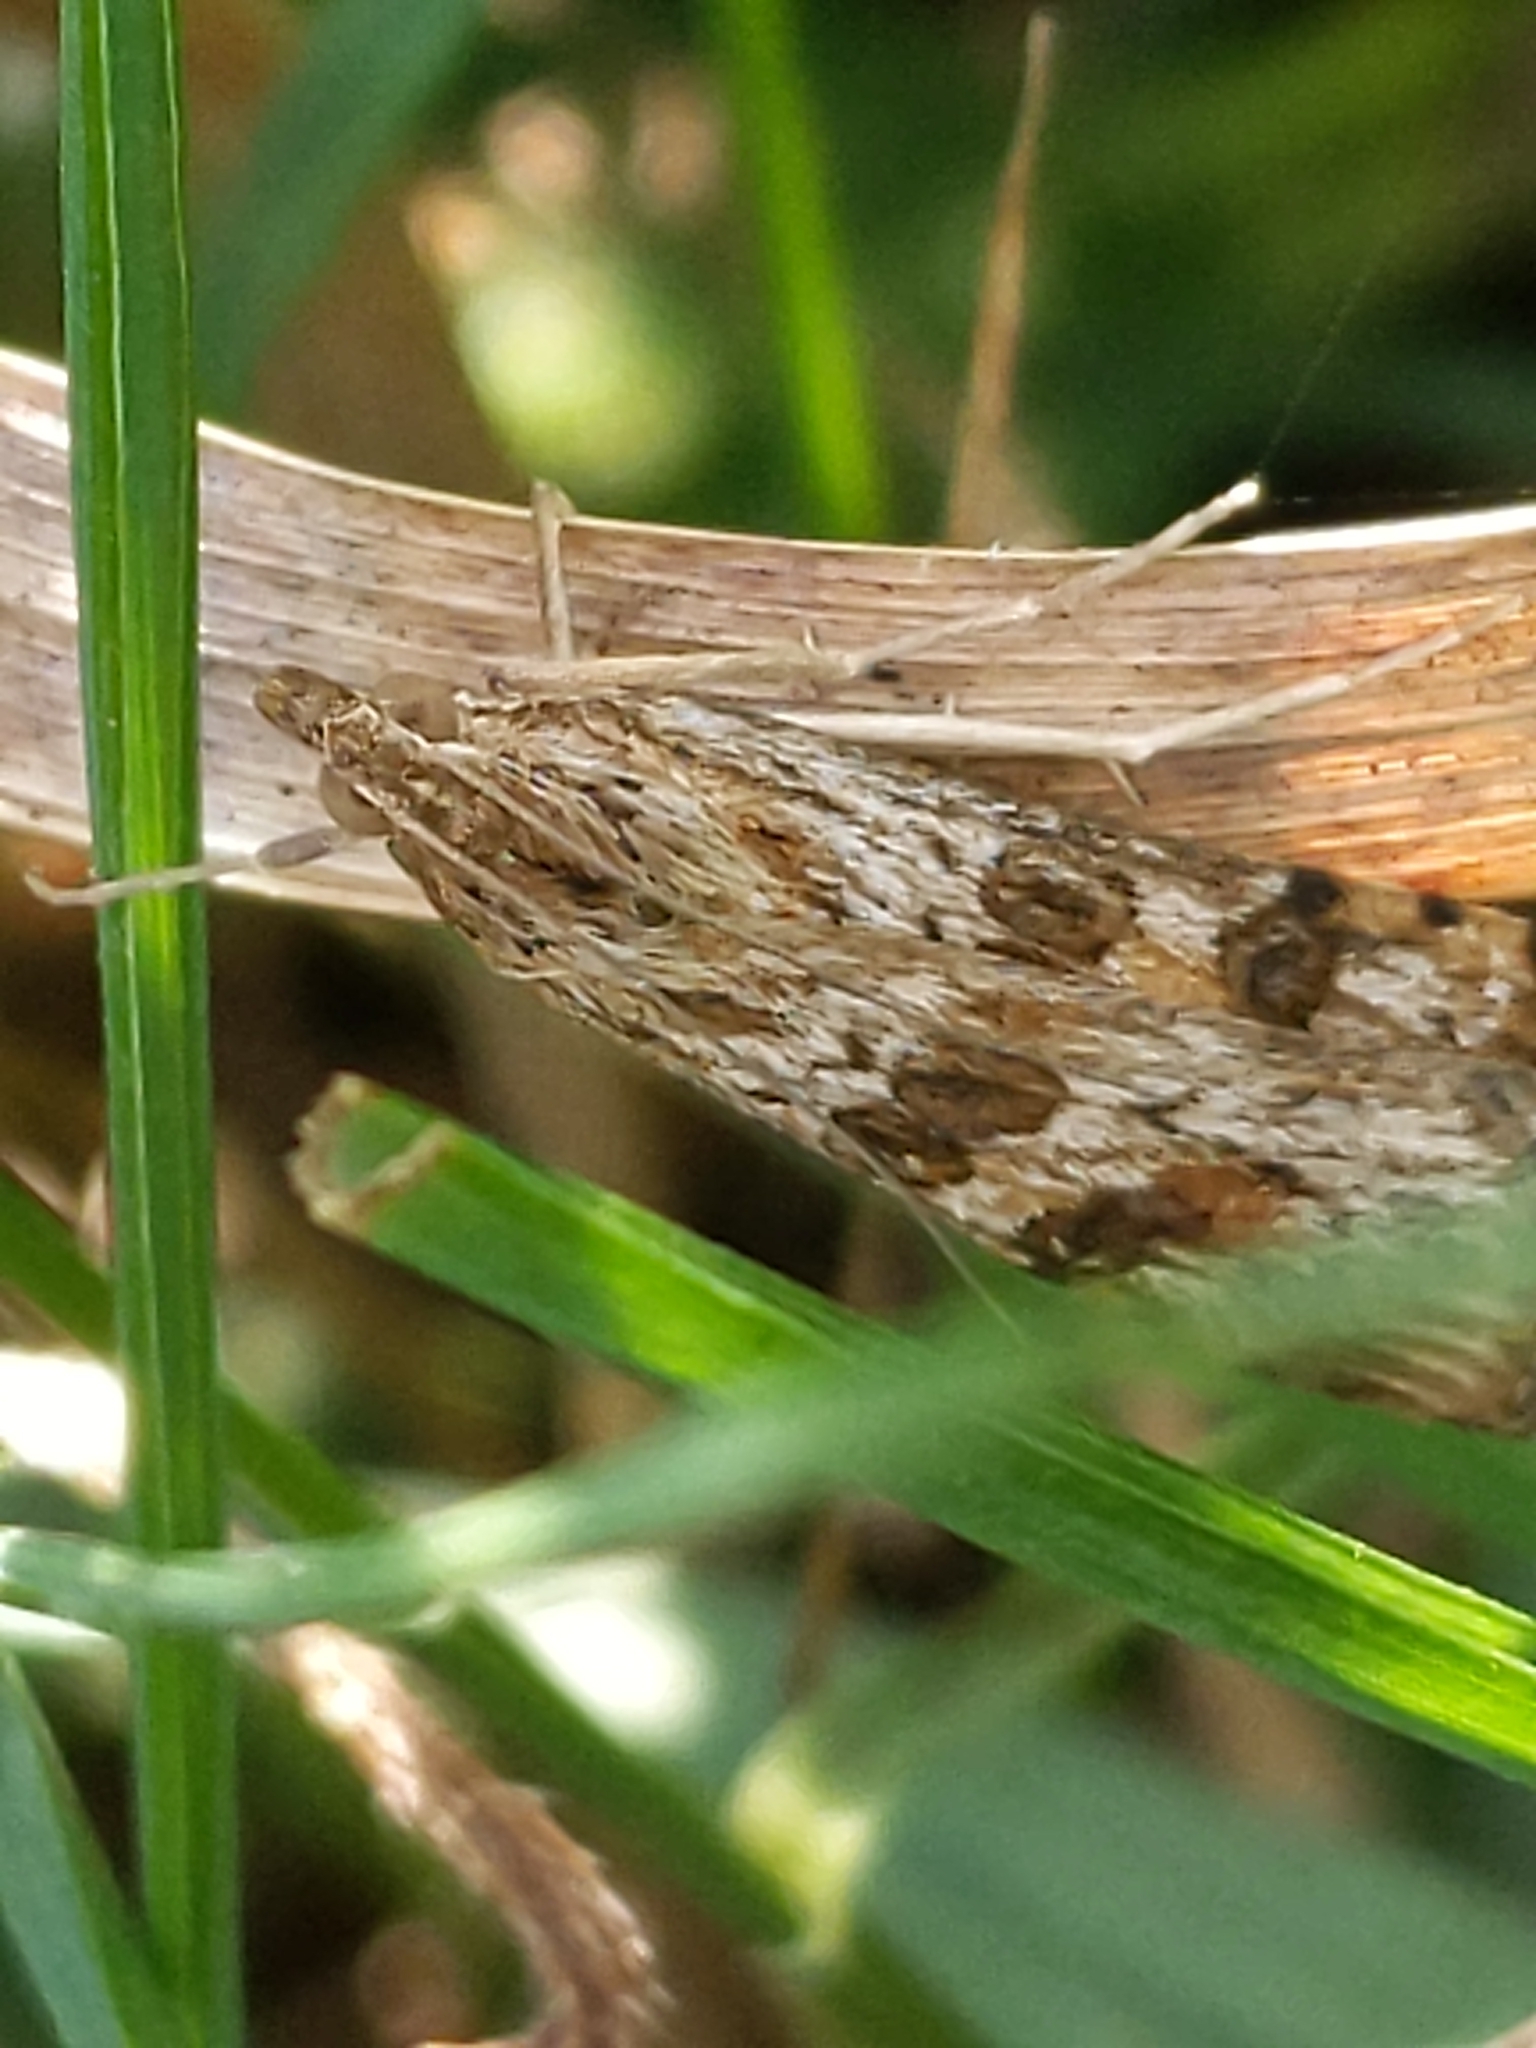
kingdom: Animalia
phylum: Arthropoda
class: Insecta
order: Lepidoptera
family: Crambidae
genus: Nomophila
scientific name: Nomophila nearctica
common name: American rush veneer
